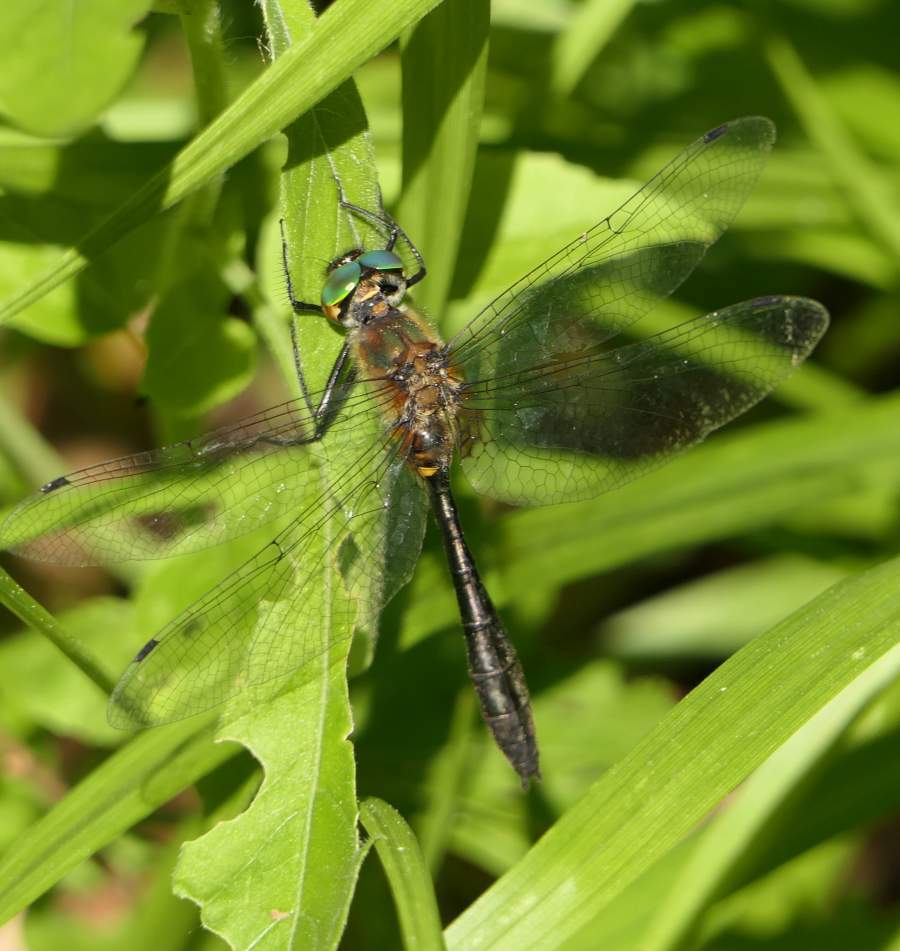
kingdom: Animalia
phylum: Arthropoda
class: Insecta
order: Odonata
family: Corduliidae
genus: Dorocordulia
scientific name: Dorocordulia libera
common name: Racket-tailed emerald
